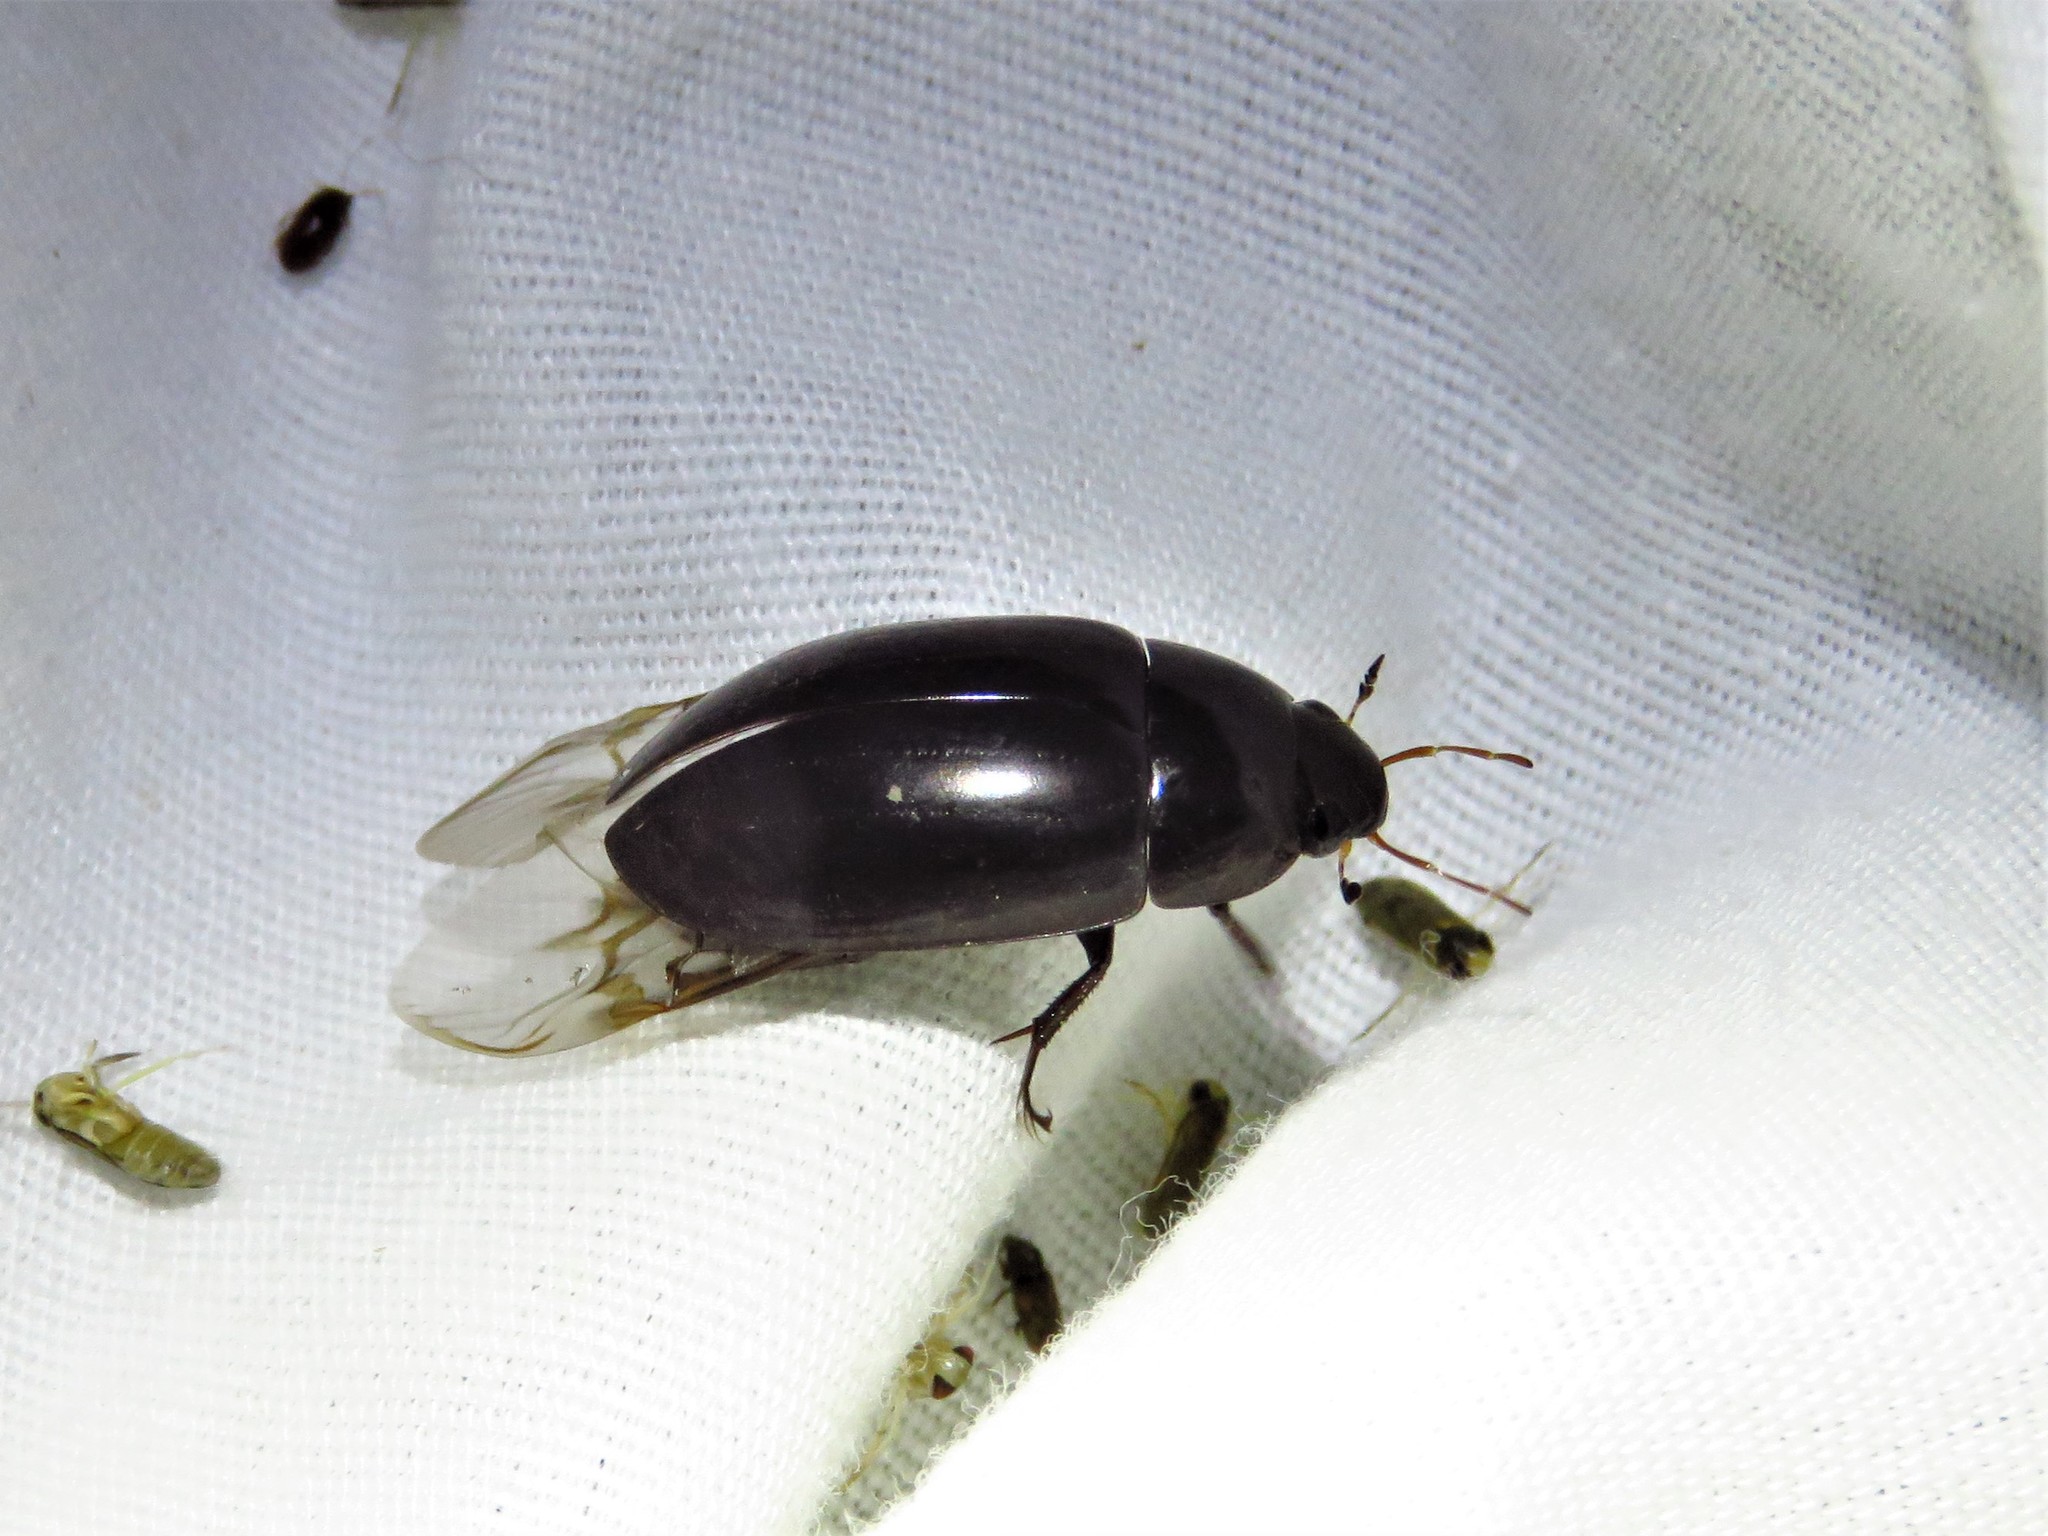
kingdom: Animalia
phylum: Arthropoda
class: Insecta
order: Coleoptera
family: Hydrophilidae
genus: Hydrochara
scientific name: Hydrochara
